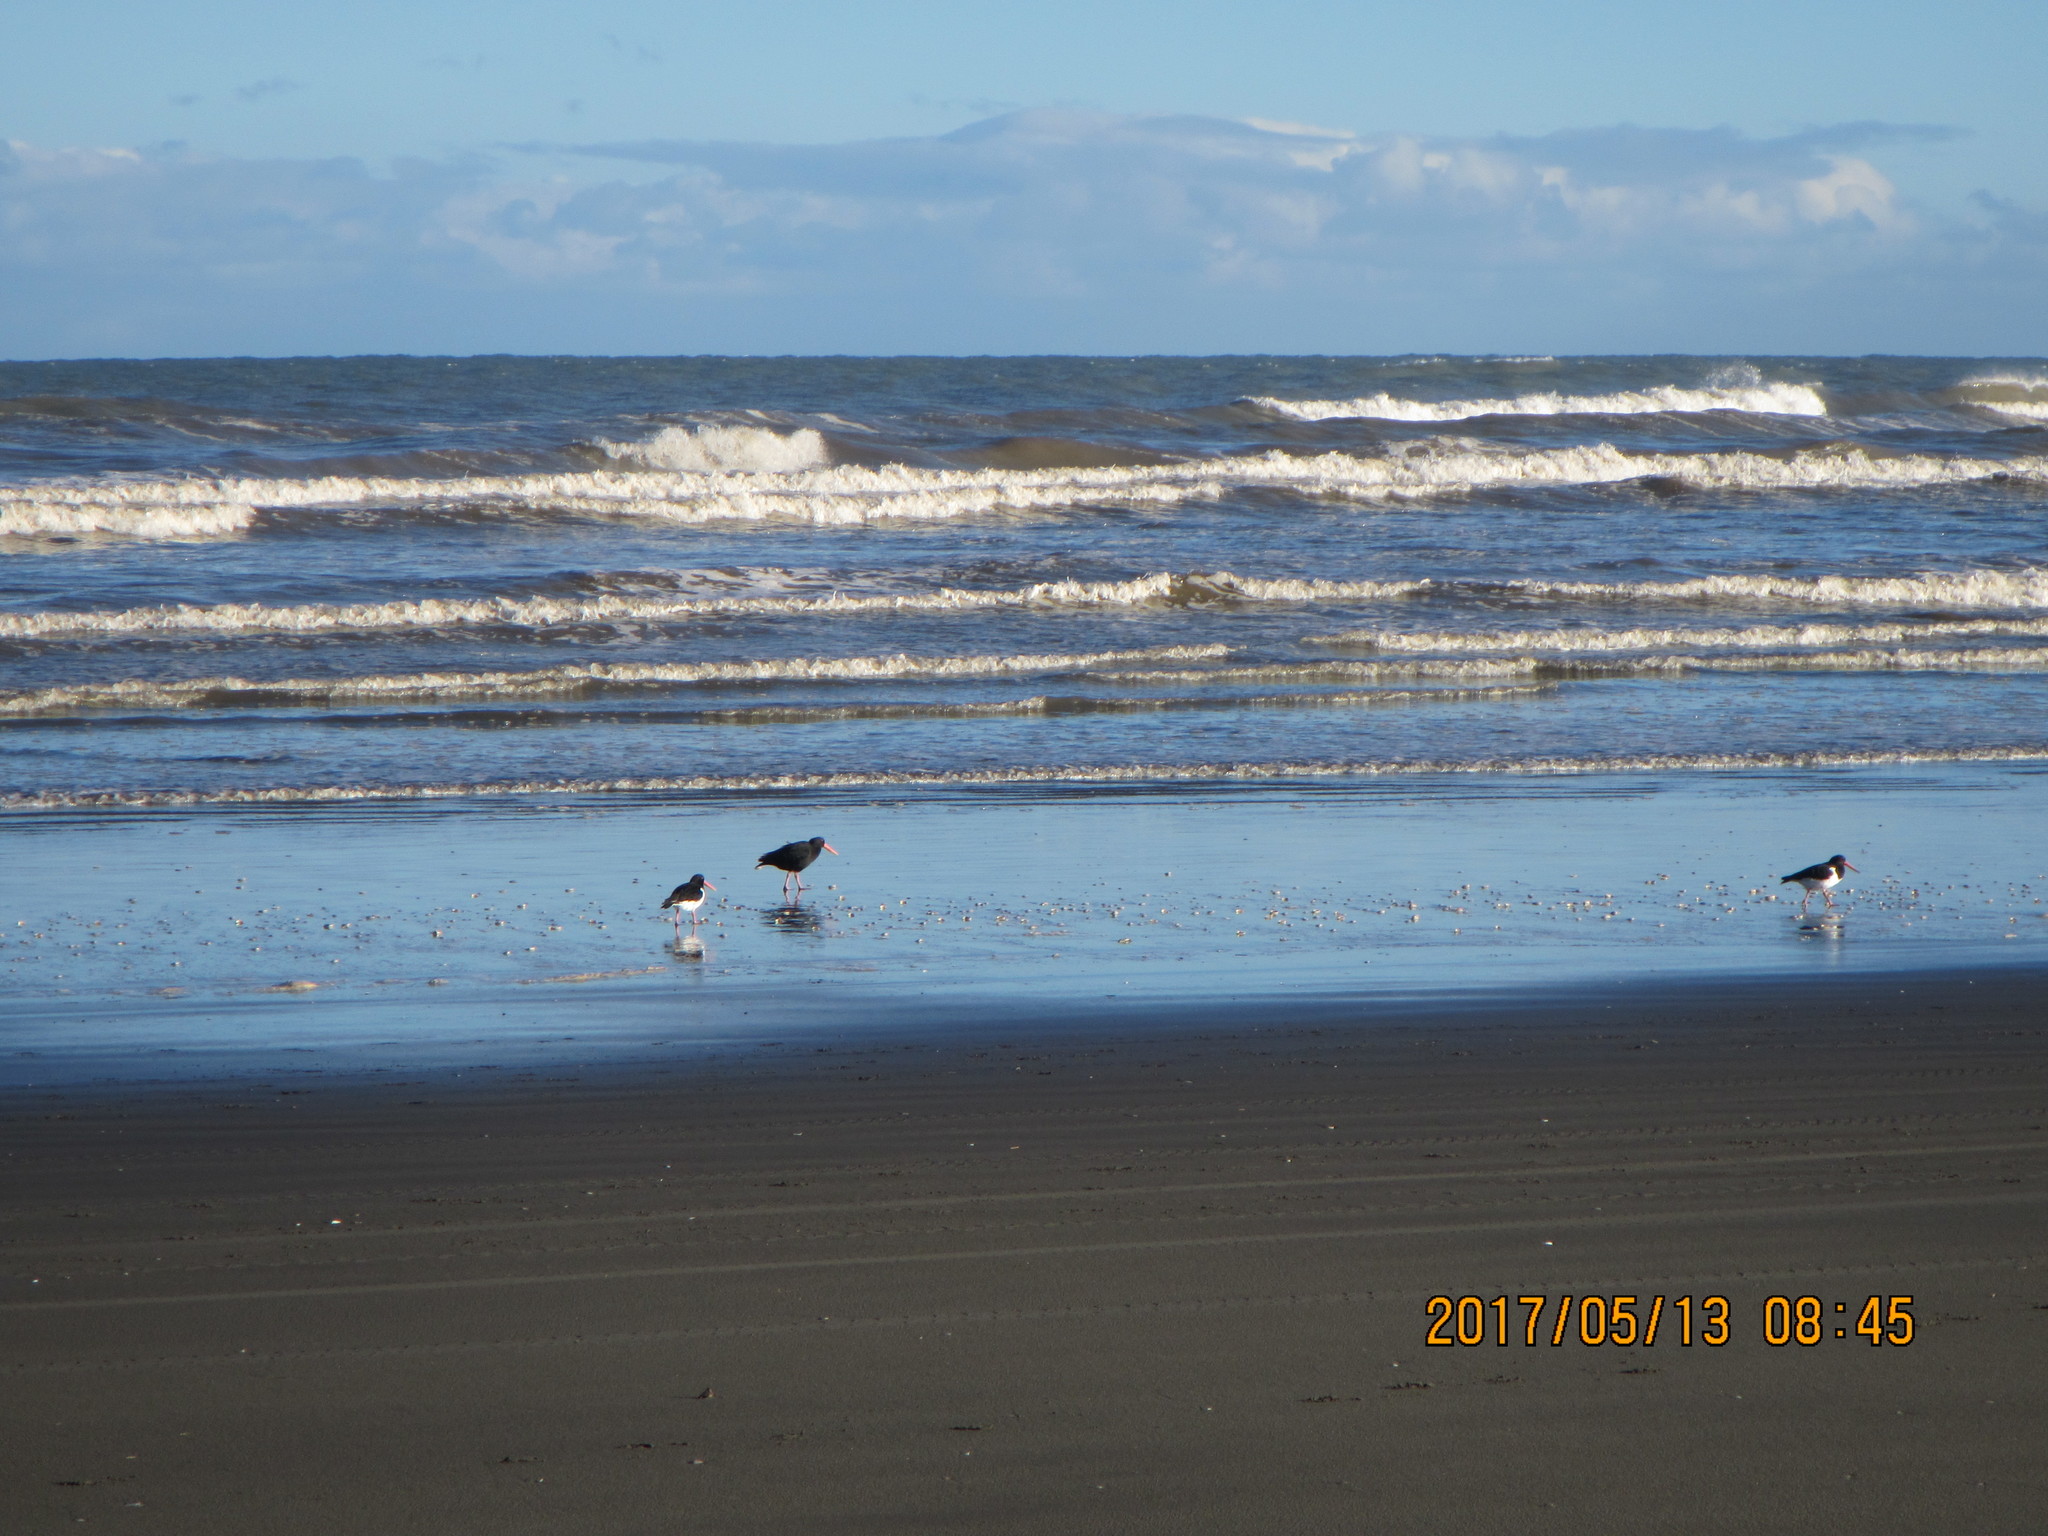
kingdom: Animalia
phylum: Chordata
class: Aves
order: Charadriiformes
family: Haematopodidae
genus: Haematopus
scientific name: Haematopus unicolor
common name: Variable oystercatcher
